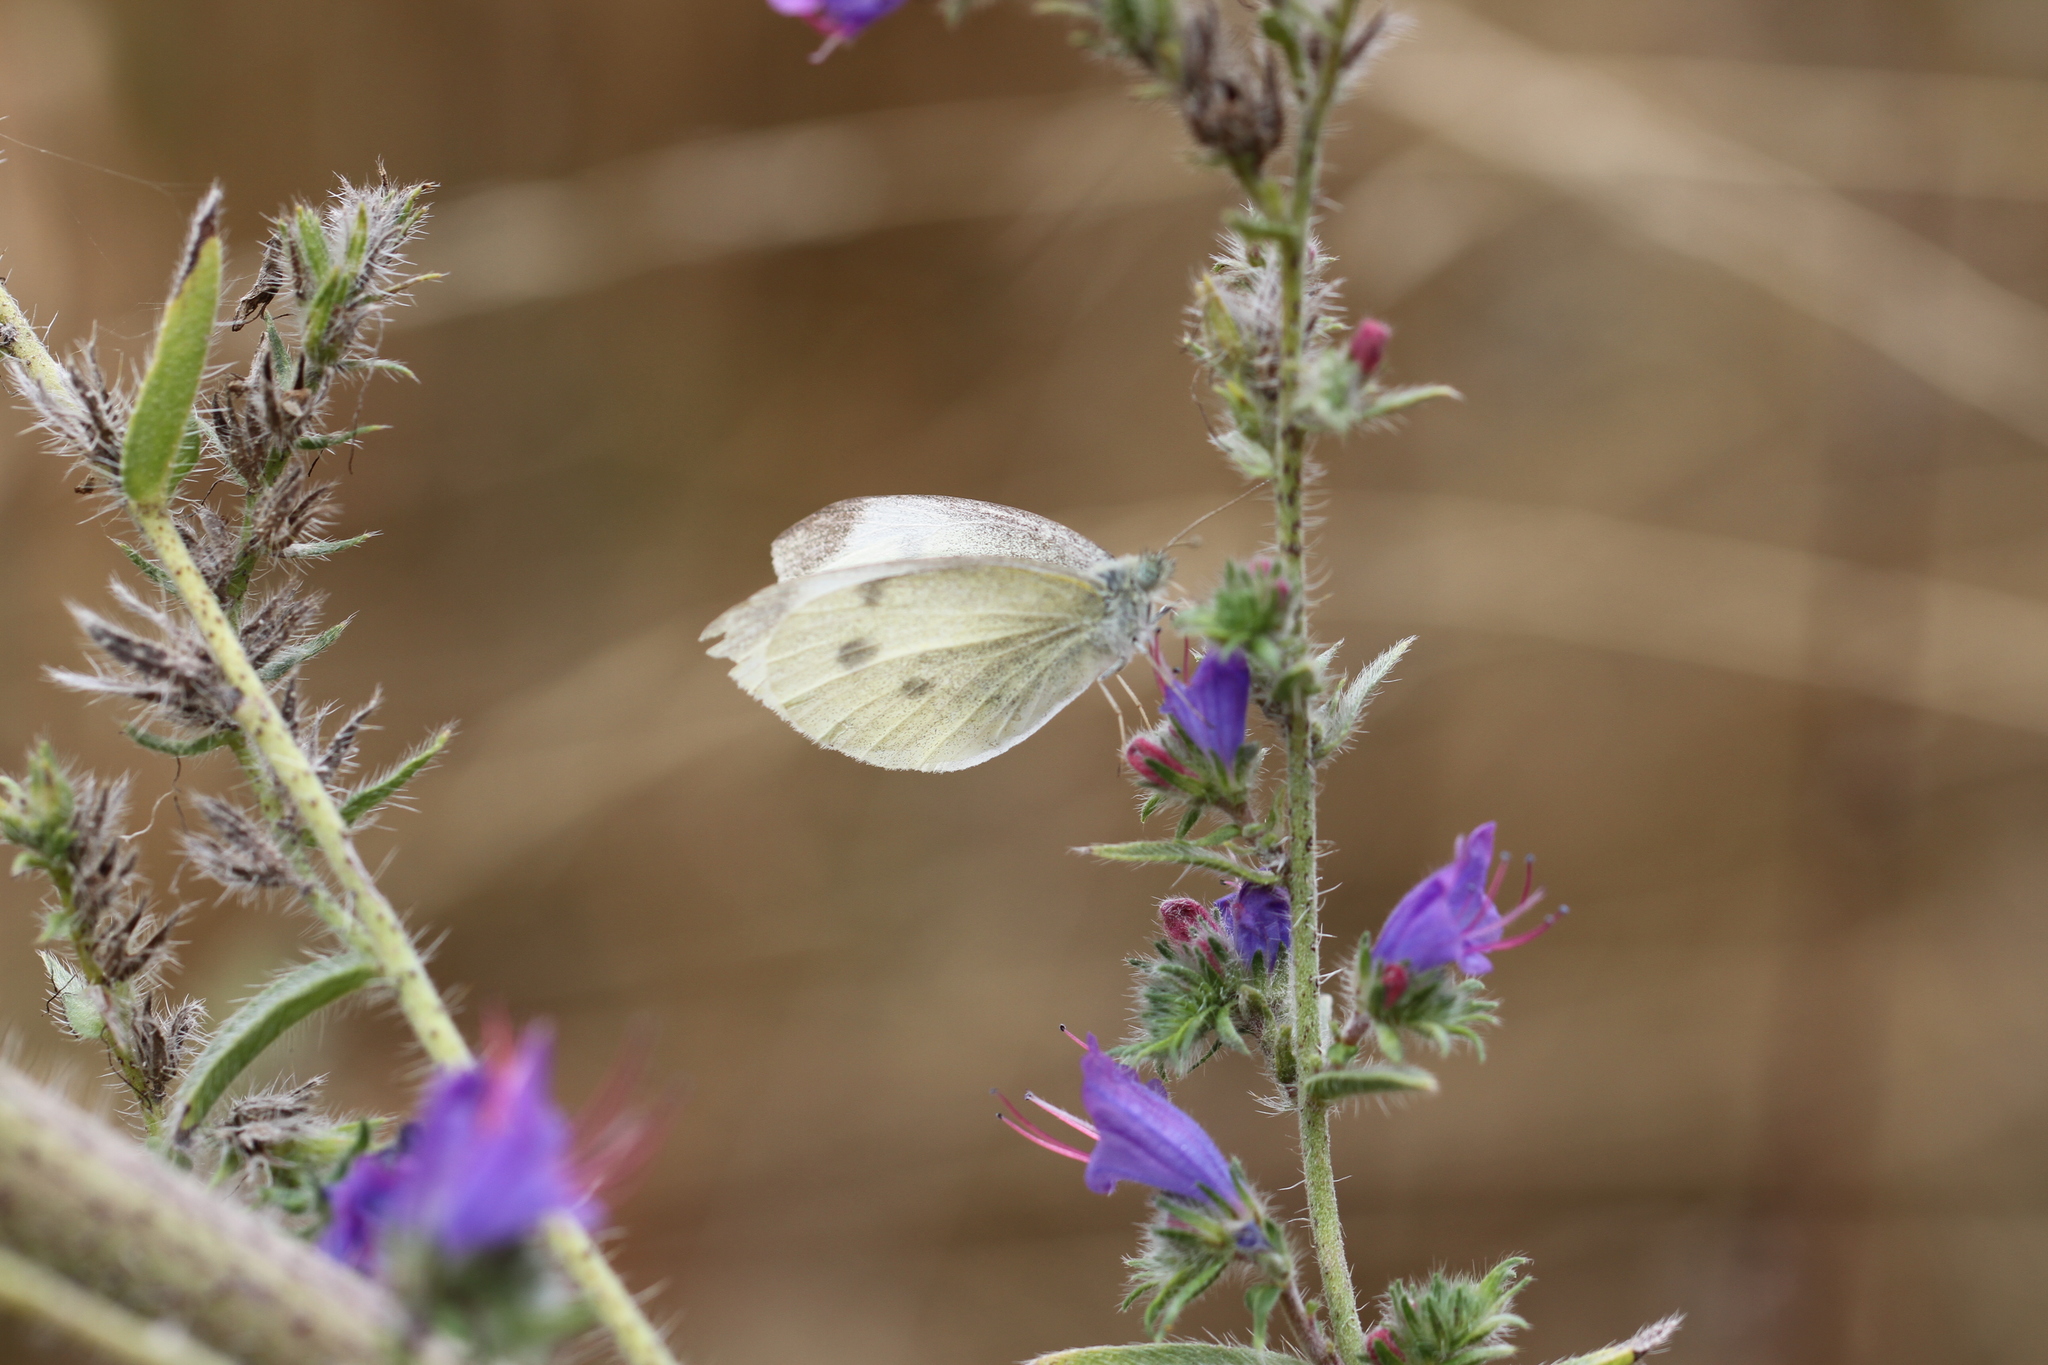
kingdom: Animalia
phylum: Arthropoda
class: Insecta
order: Lepidoptera
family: Pieridae
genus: Pieris
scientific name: Pieris rapae
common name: Small white
